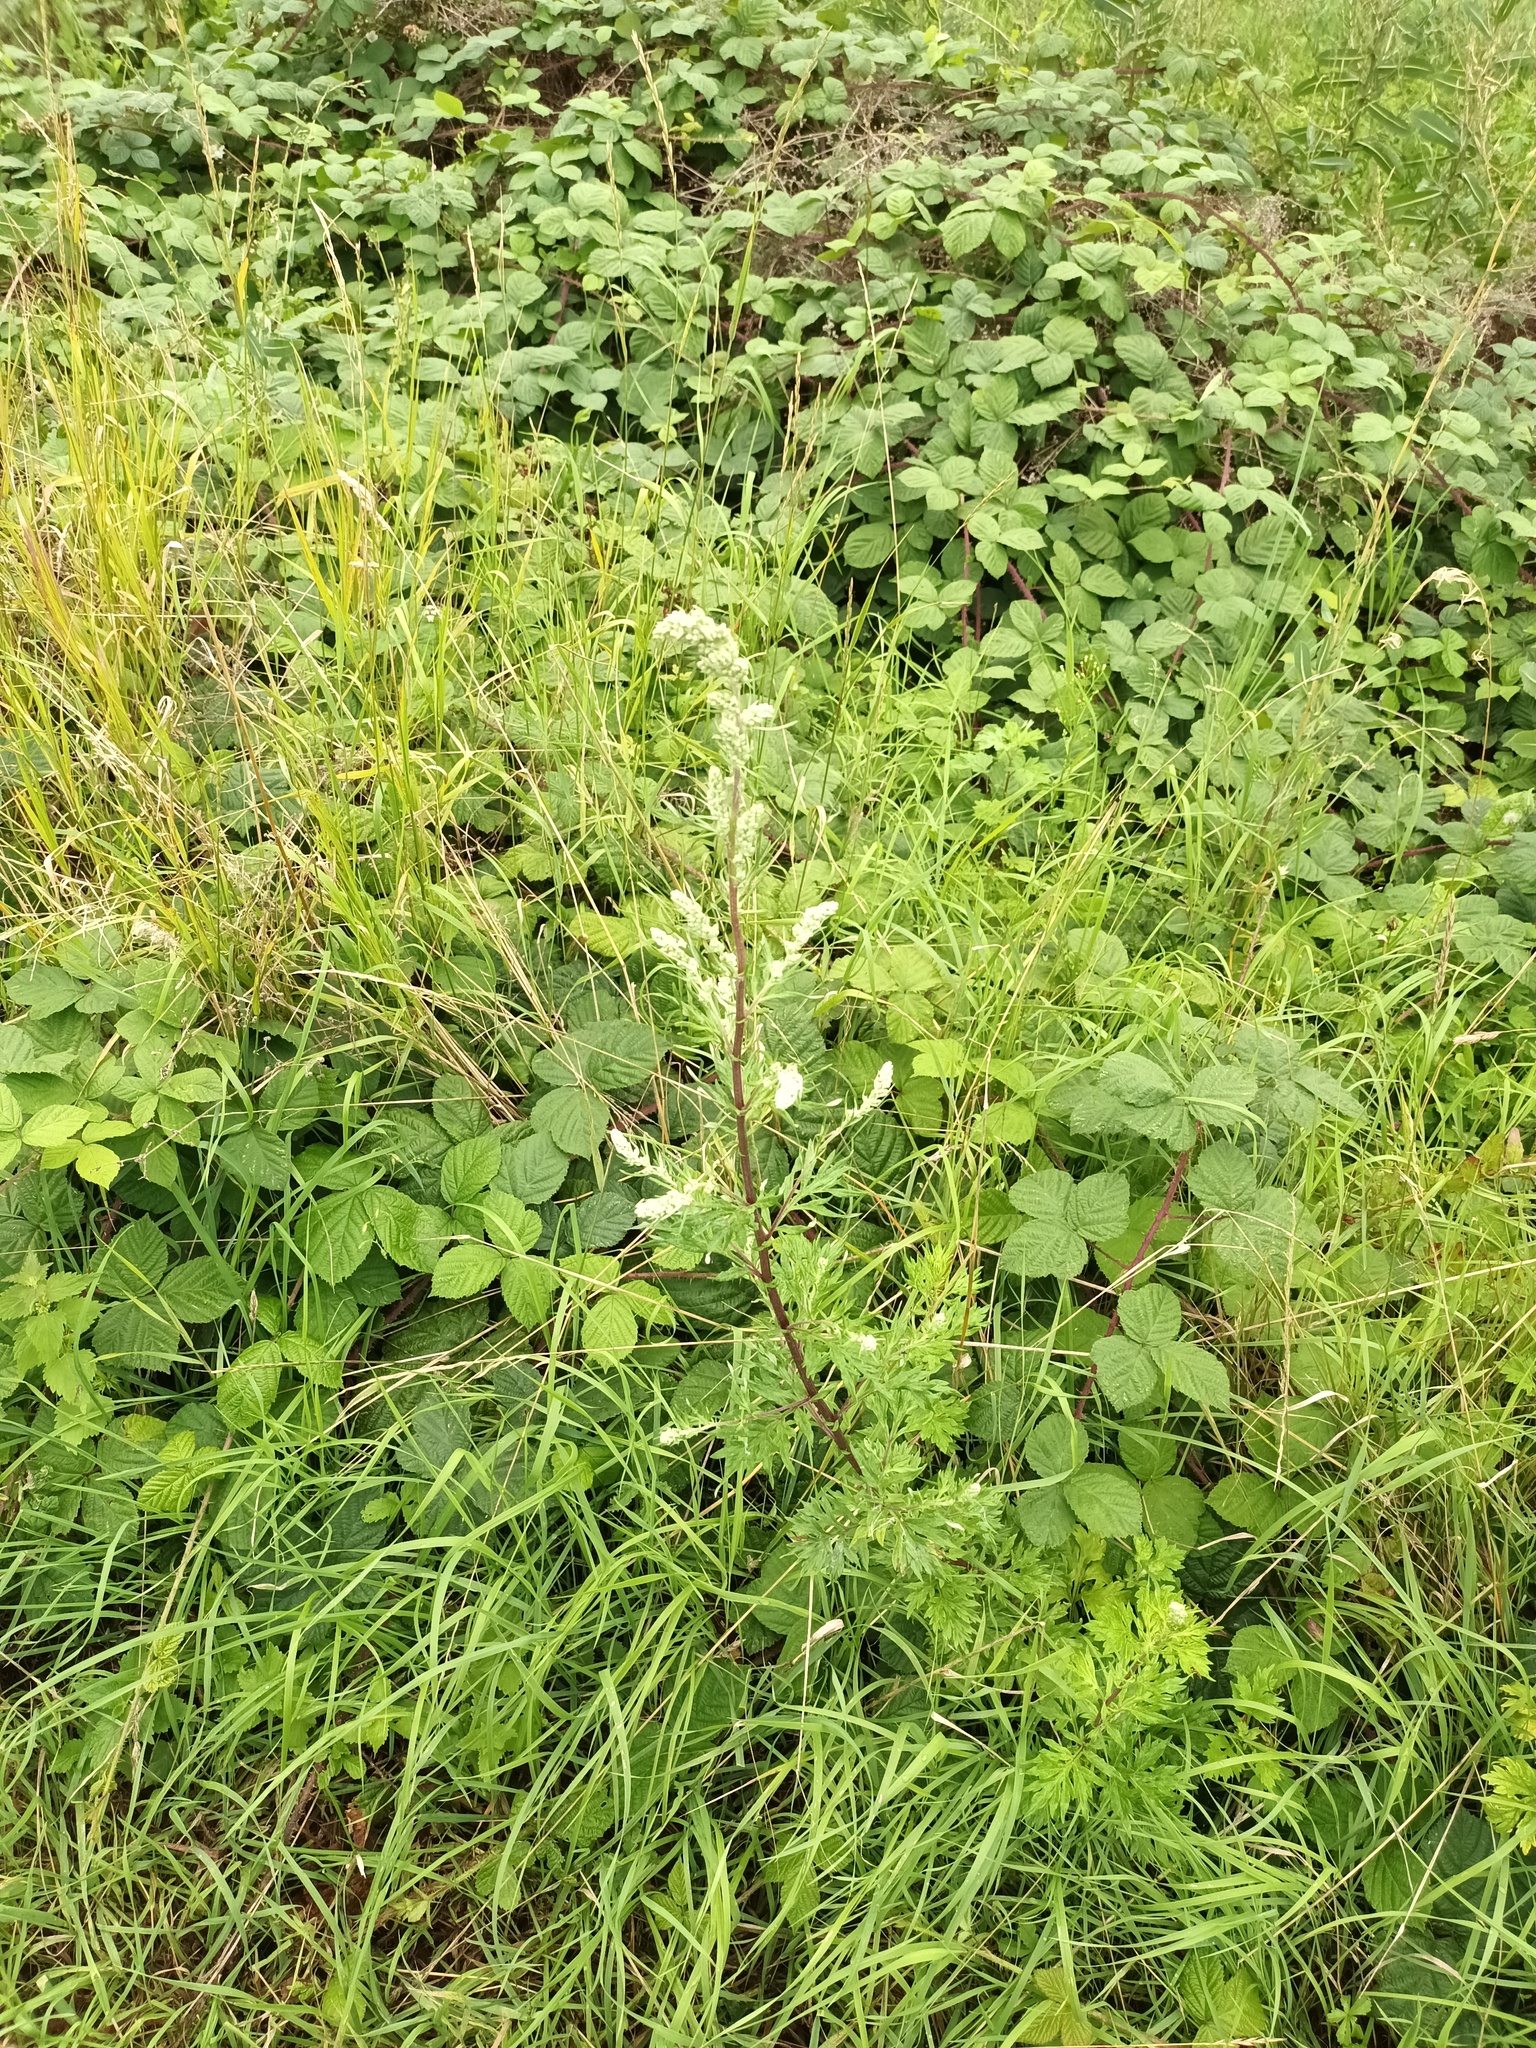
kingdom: Plantae
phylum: Tracheophyta
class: Magnoliopsida
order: Asterales
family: Asteraceae
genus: Artemisia
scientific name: Artemisia vulgaris
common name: Mugwort
